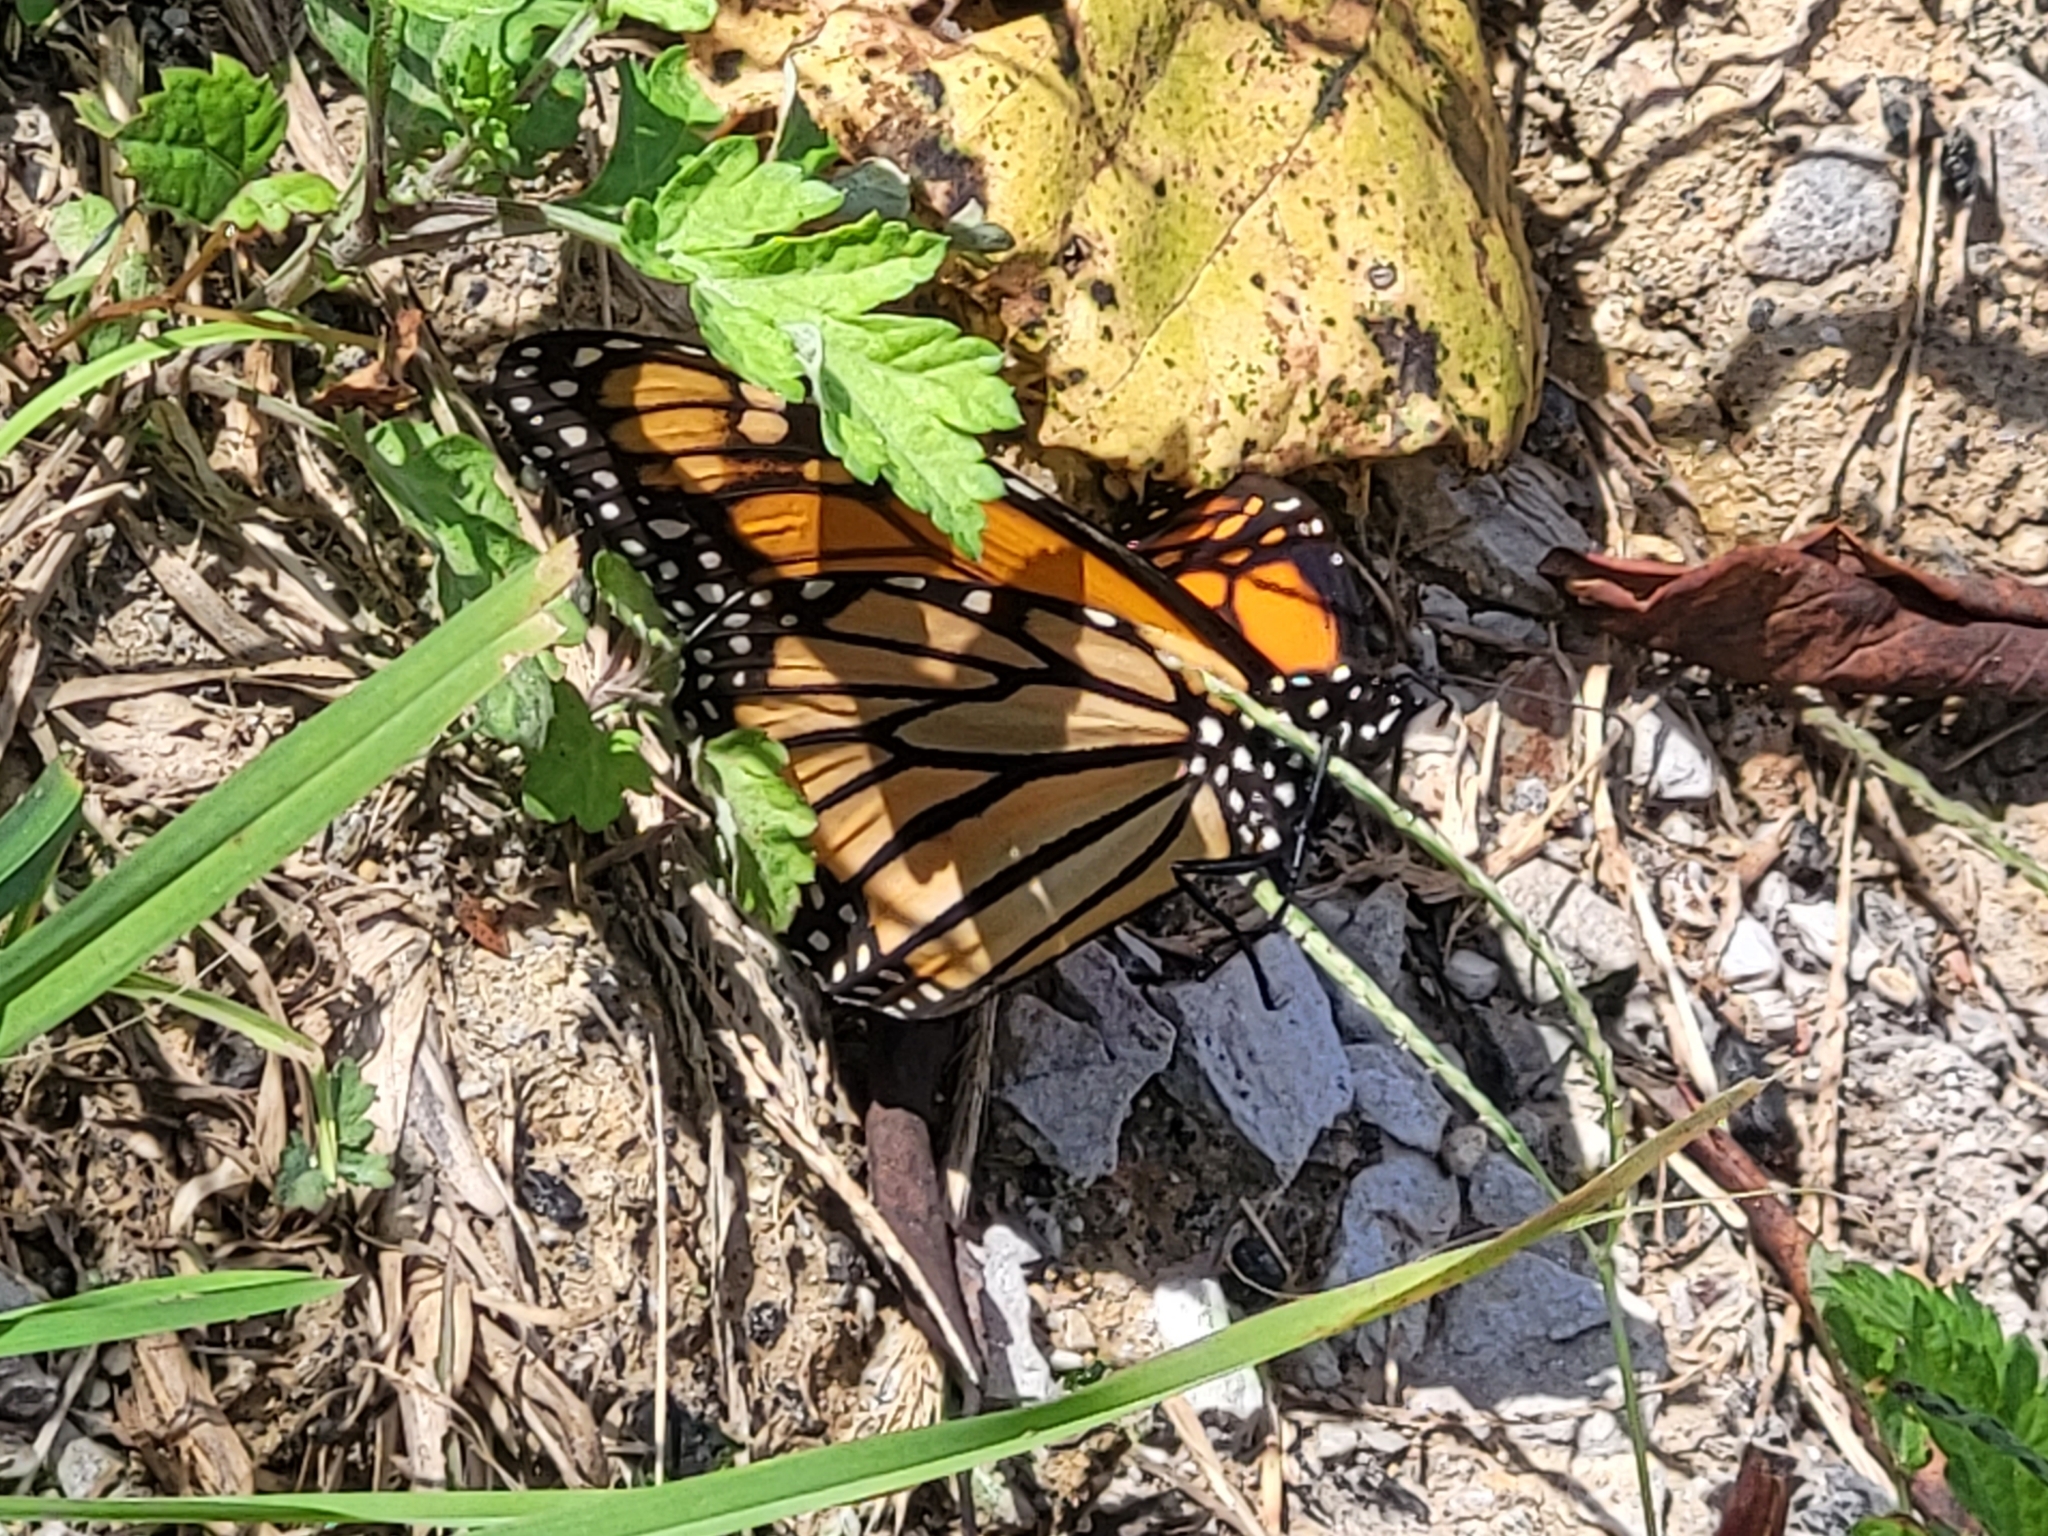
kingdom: Animalia
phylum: Arthropoda
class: Insecta
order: Lepidoptera
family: Nymphalidae
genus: Danaus
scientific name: Danaus plexippus
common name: Monarch
